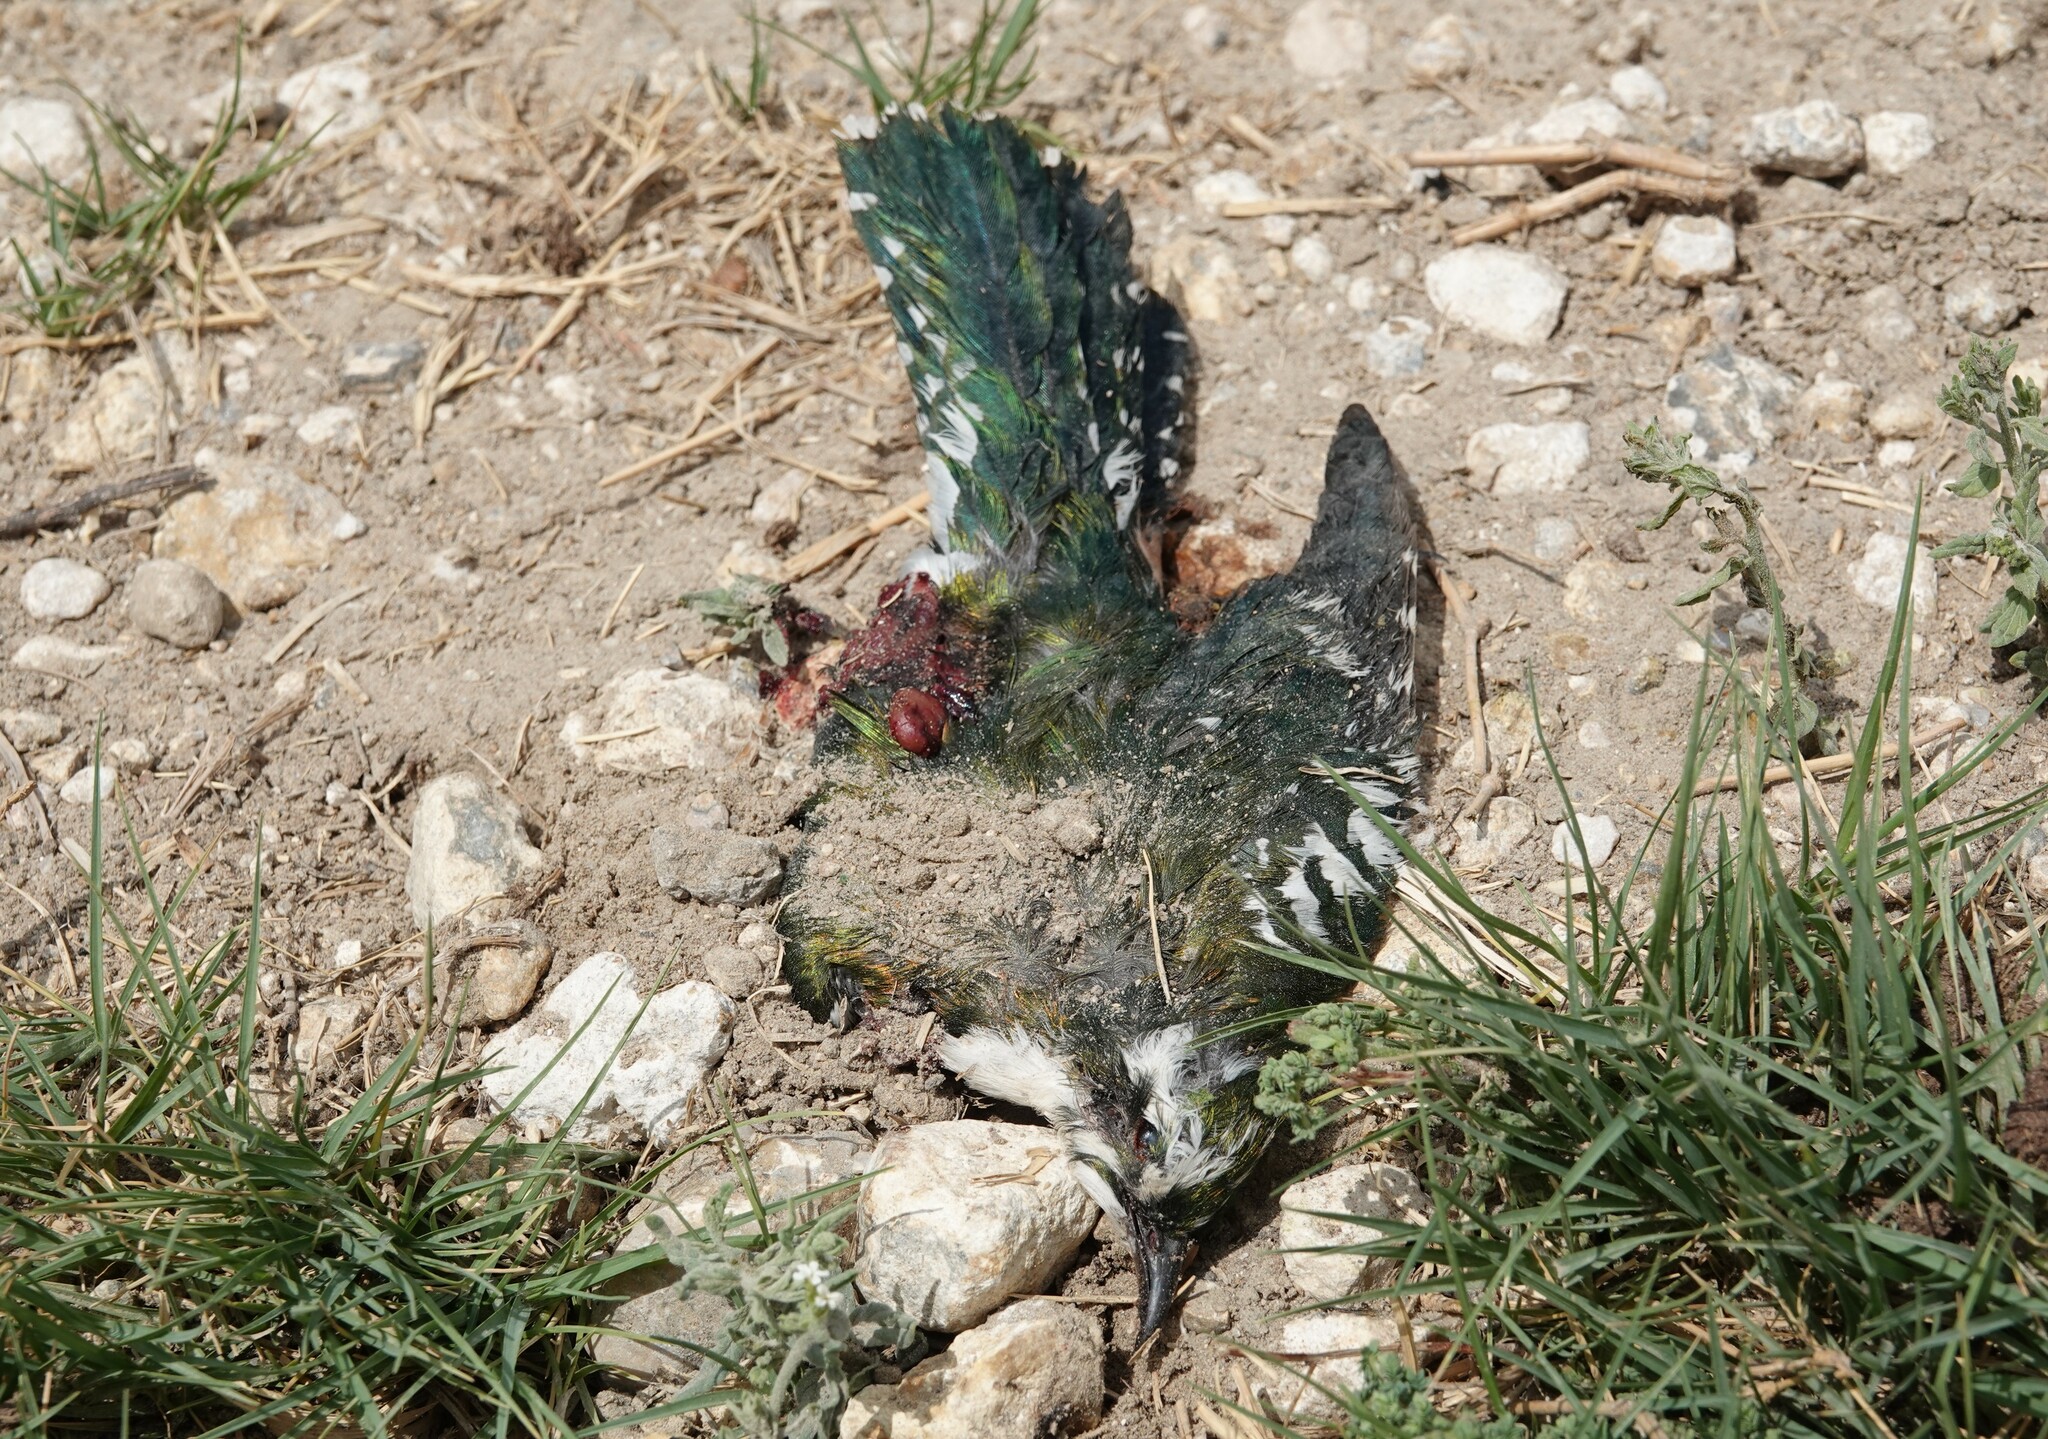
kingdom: Animalia
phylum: Chordata
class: Aves
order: Cuculiformes
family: Cuculidae
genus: Chrysococcyx
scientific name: Chrysococcyx caprius
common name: Diederik cuckoo
